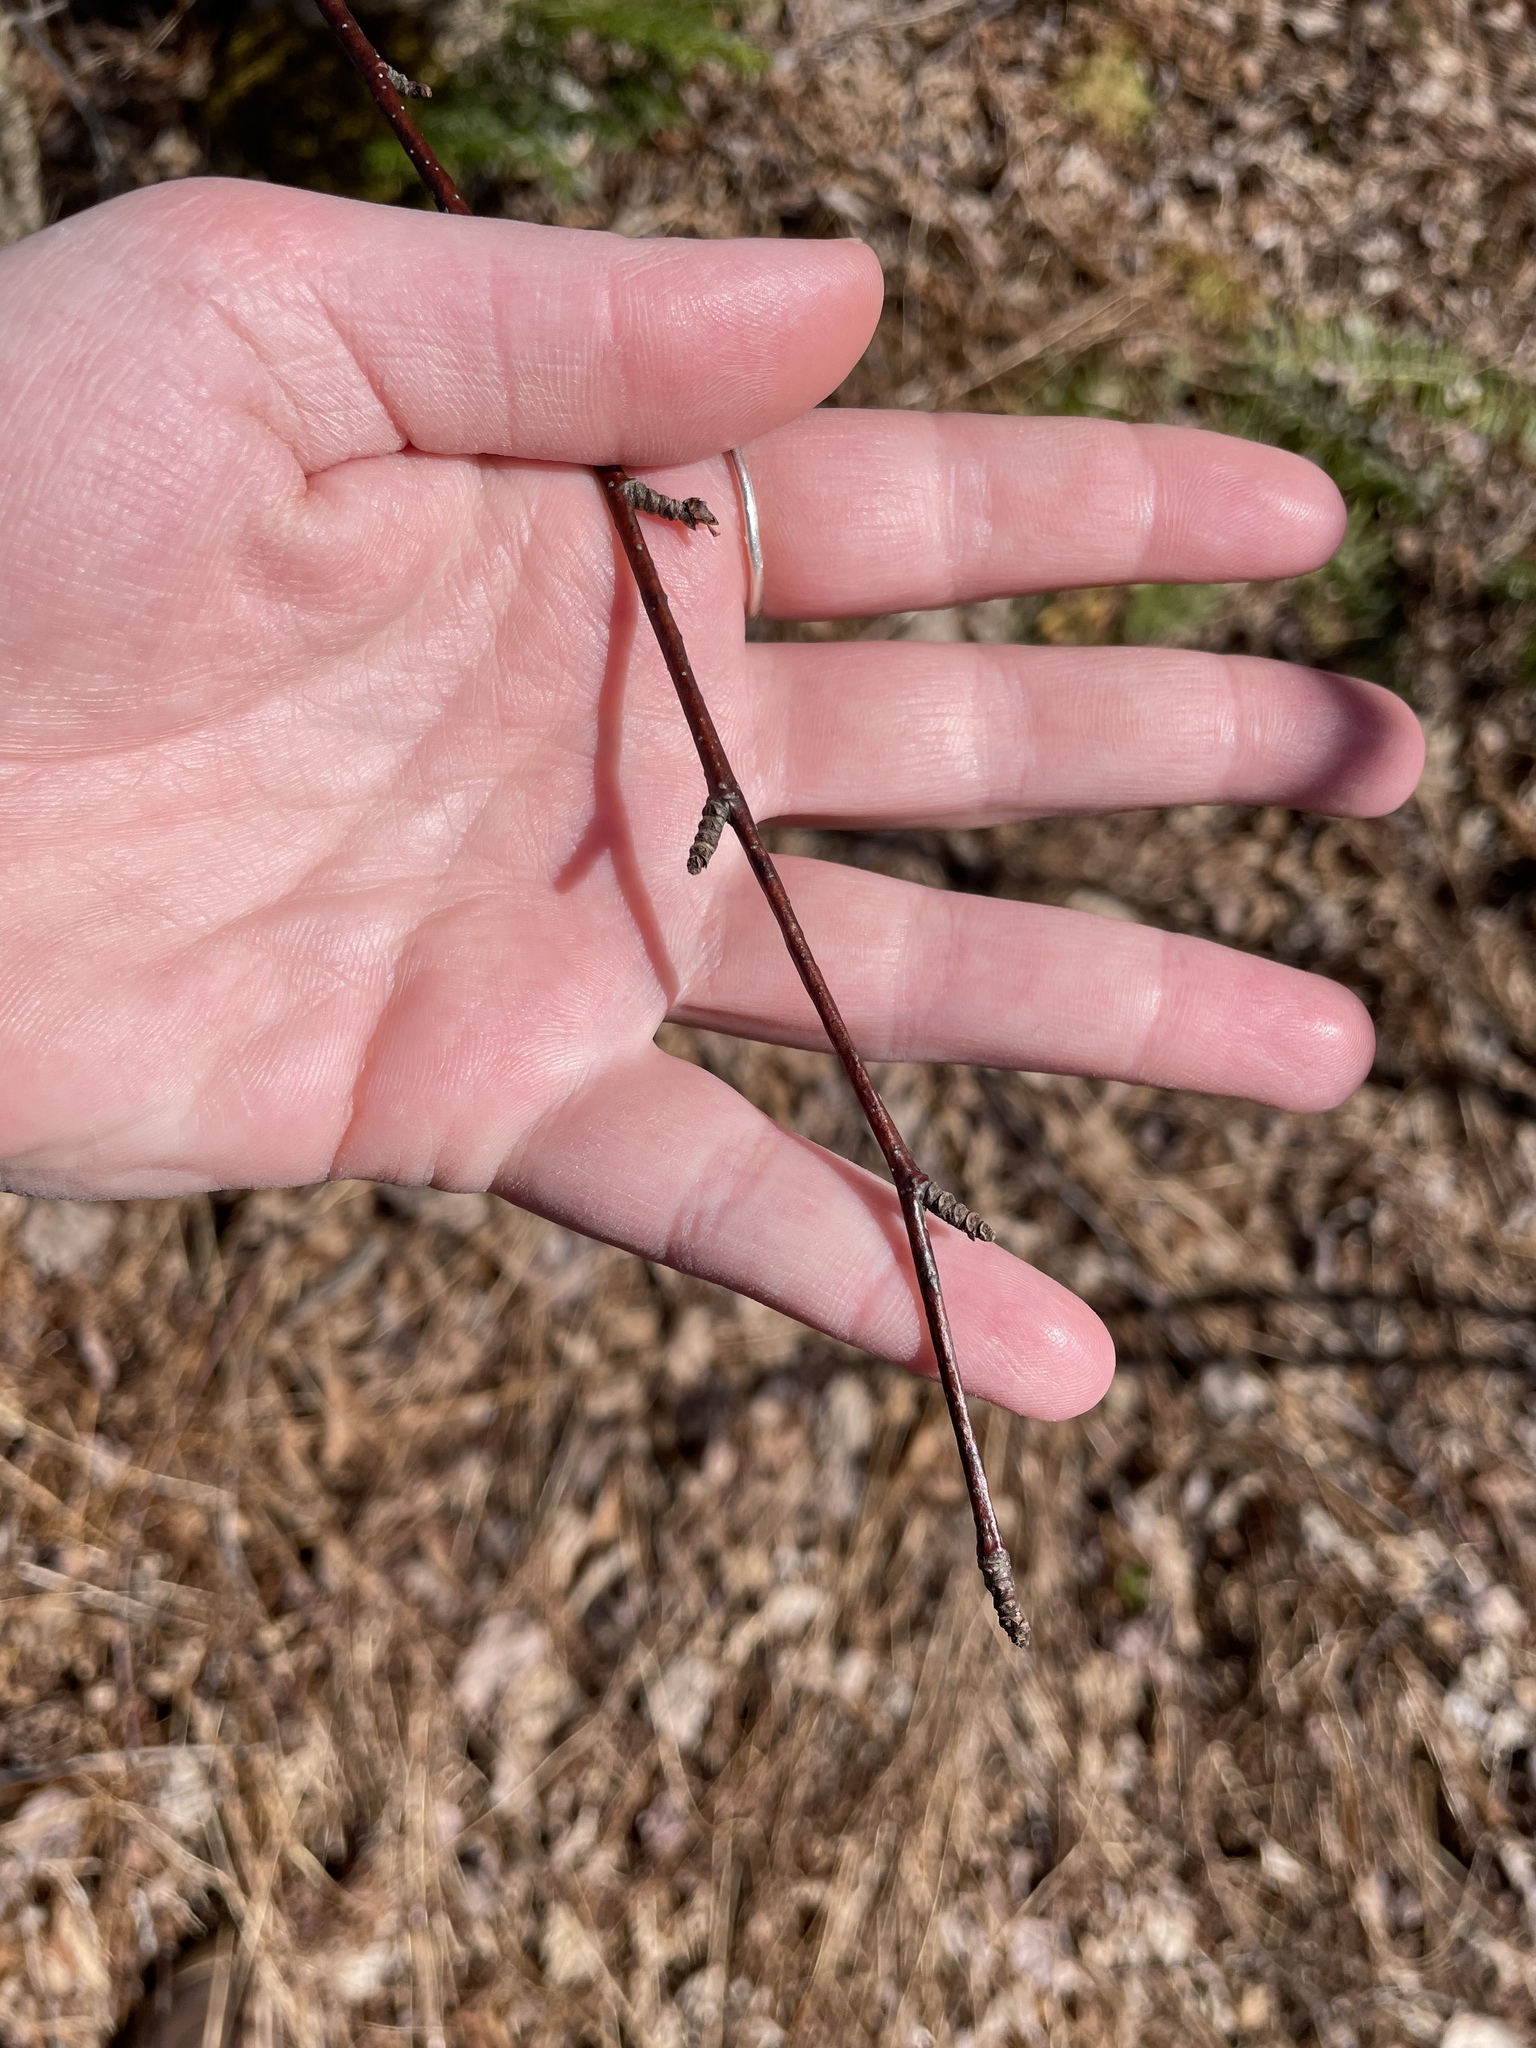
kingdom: Plantae
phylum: Tracheophyta
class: Magnoliopsida
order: Fagales
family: Betulaceae
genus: Betula
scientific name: Betula alleghaniensis
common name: Yellow birch
